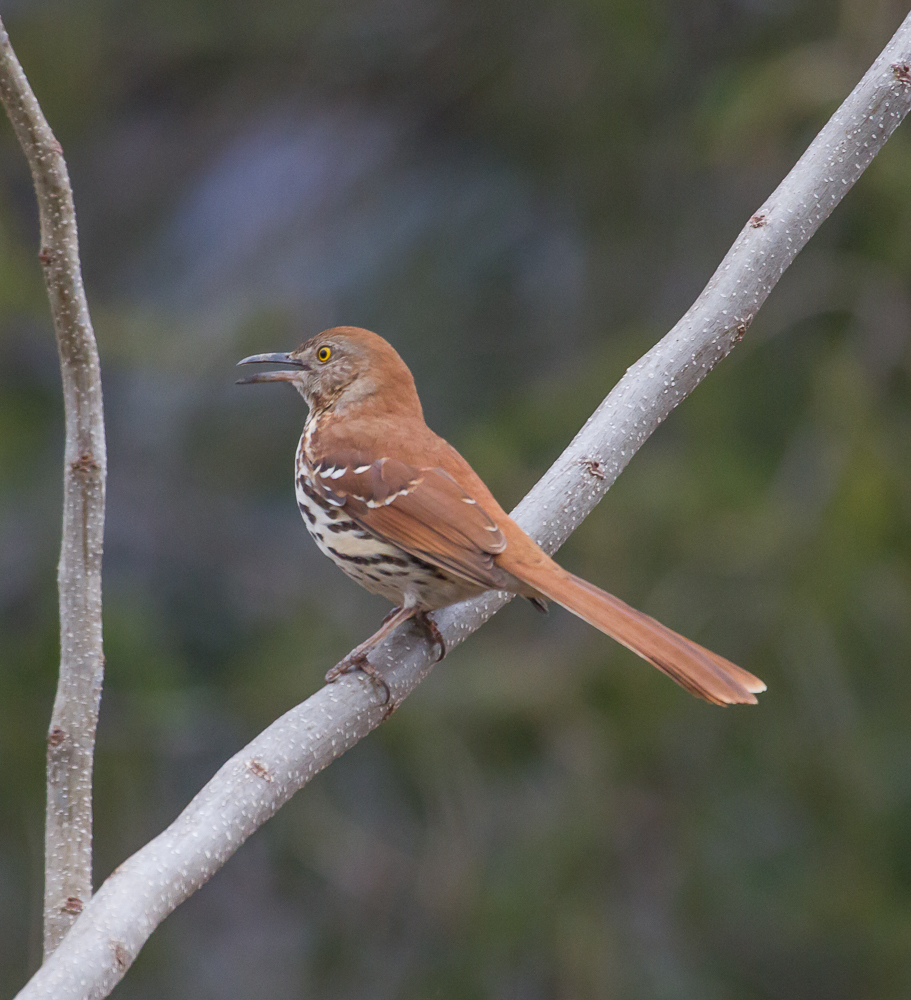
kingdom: Animalia
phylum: Chordata
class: Aves
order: Passeriformes
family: Mimidae
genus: Toxostoma
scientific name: Toxostoma rufum
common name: Brown thrasher
